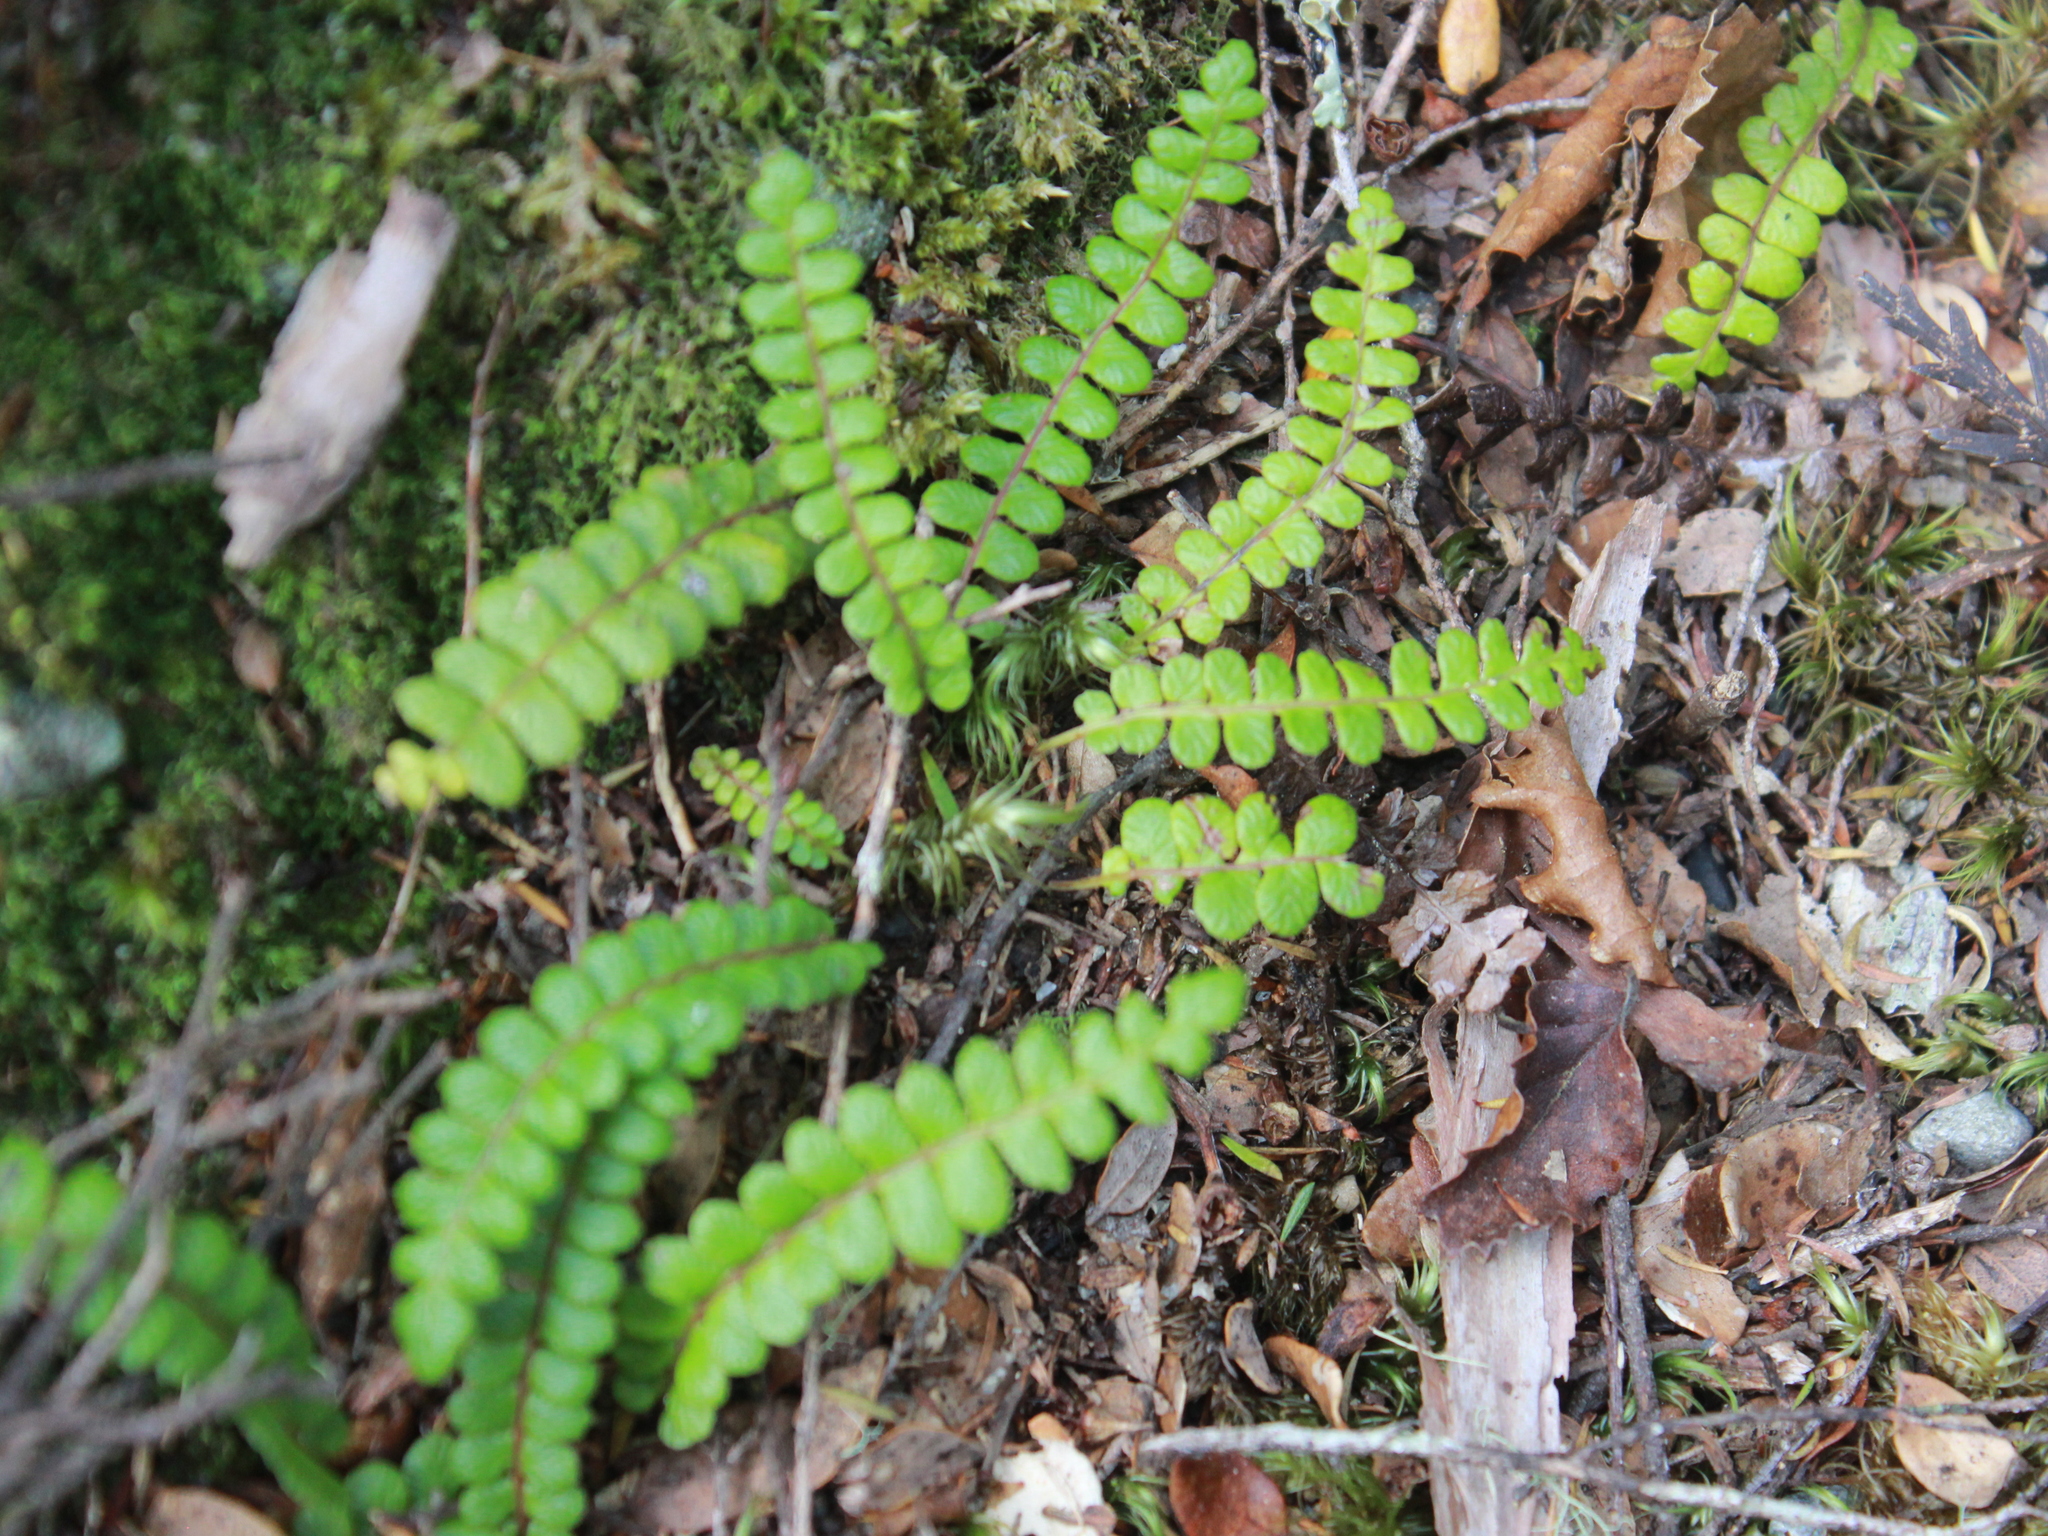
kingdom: Plantae
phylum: Tracheophyta
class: Polypodiopsida
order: Polypodiales
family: Blechnaceae
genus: Austroblechnum
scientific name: Austroblechnum penna-marina
